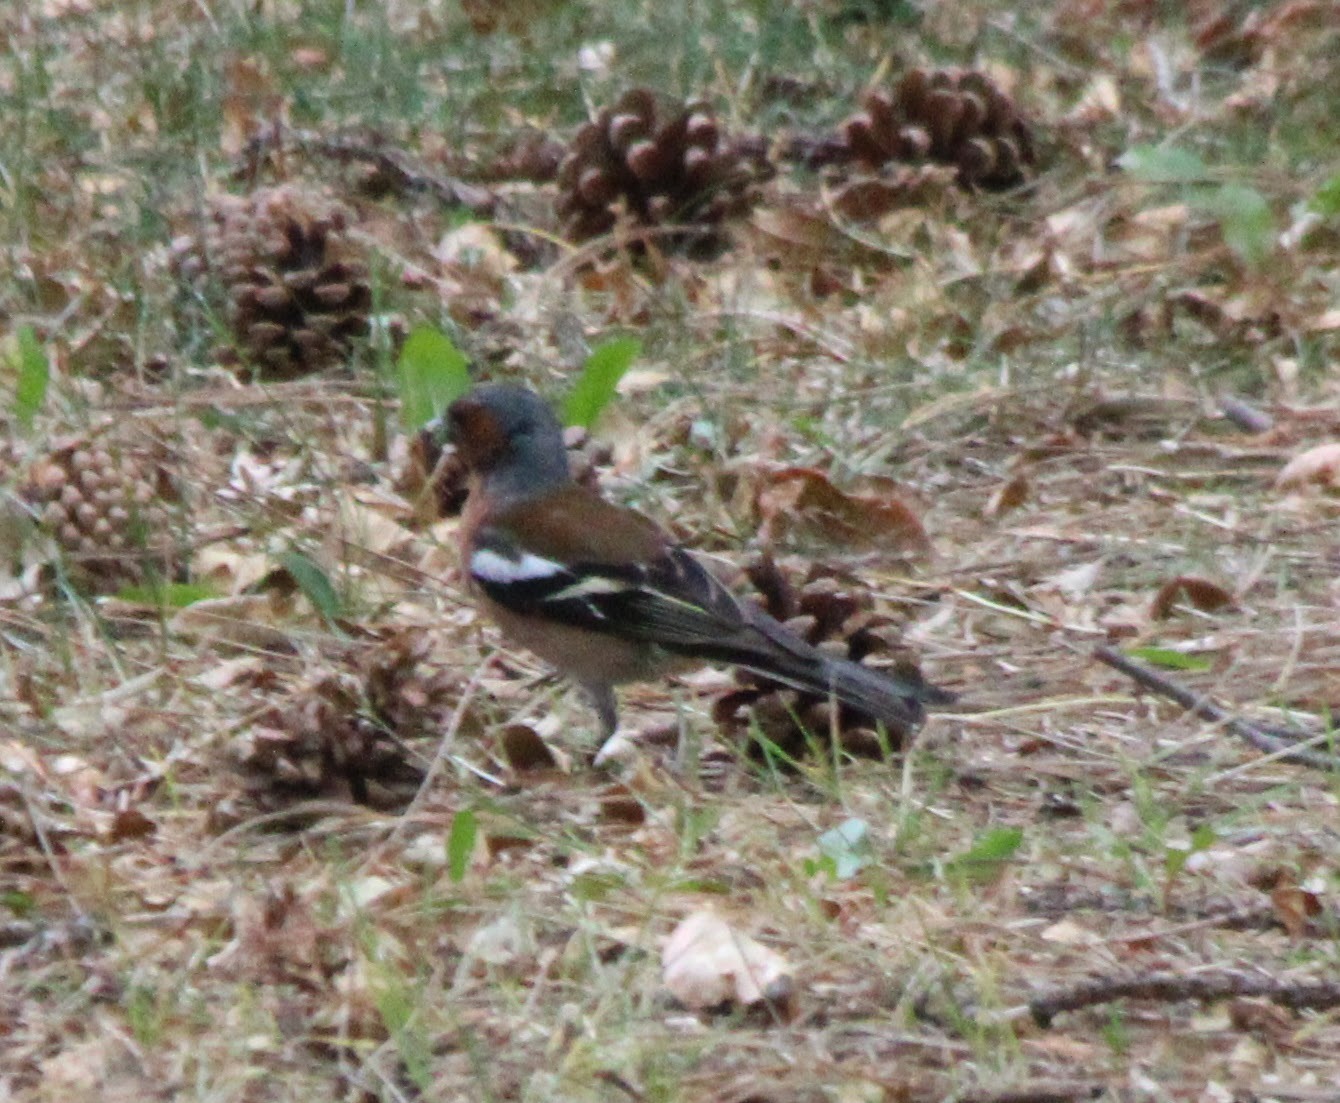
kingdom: Animalia
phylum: Chordata
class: Aves
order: Passeriformes
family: Fringillidae
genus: Fringilla
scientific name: Fringilla coelebs
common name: Common chaffinch
